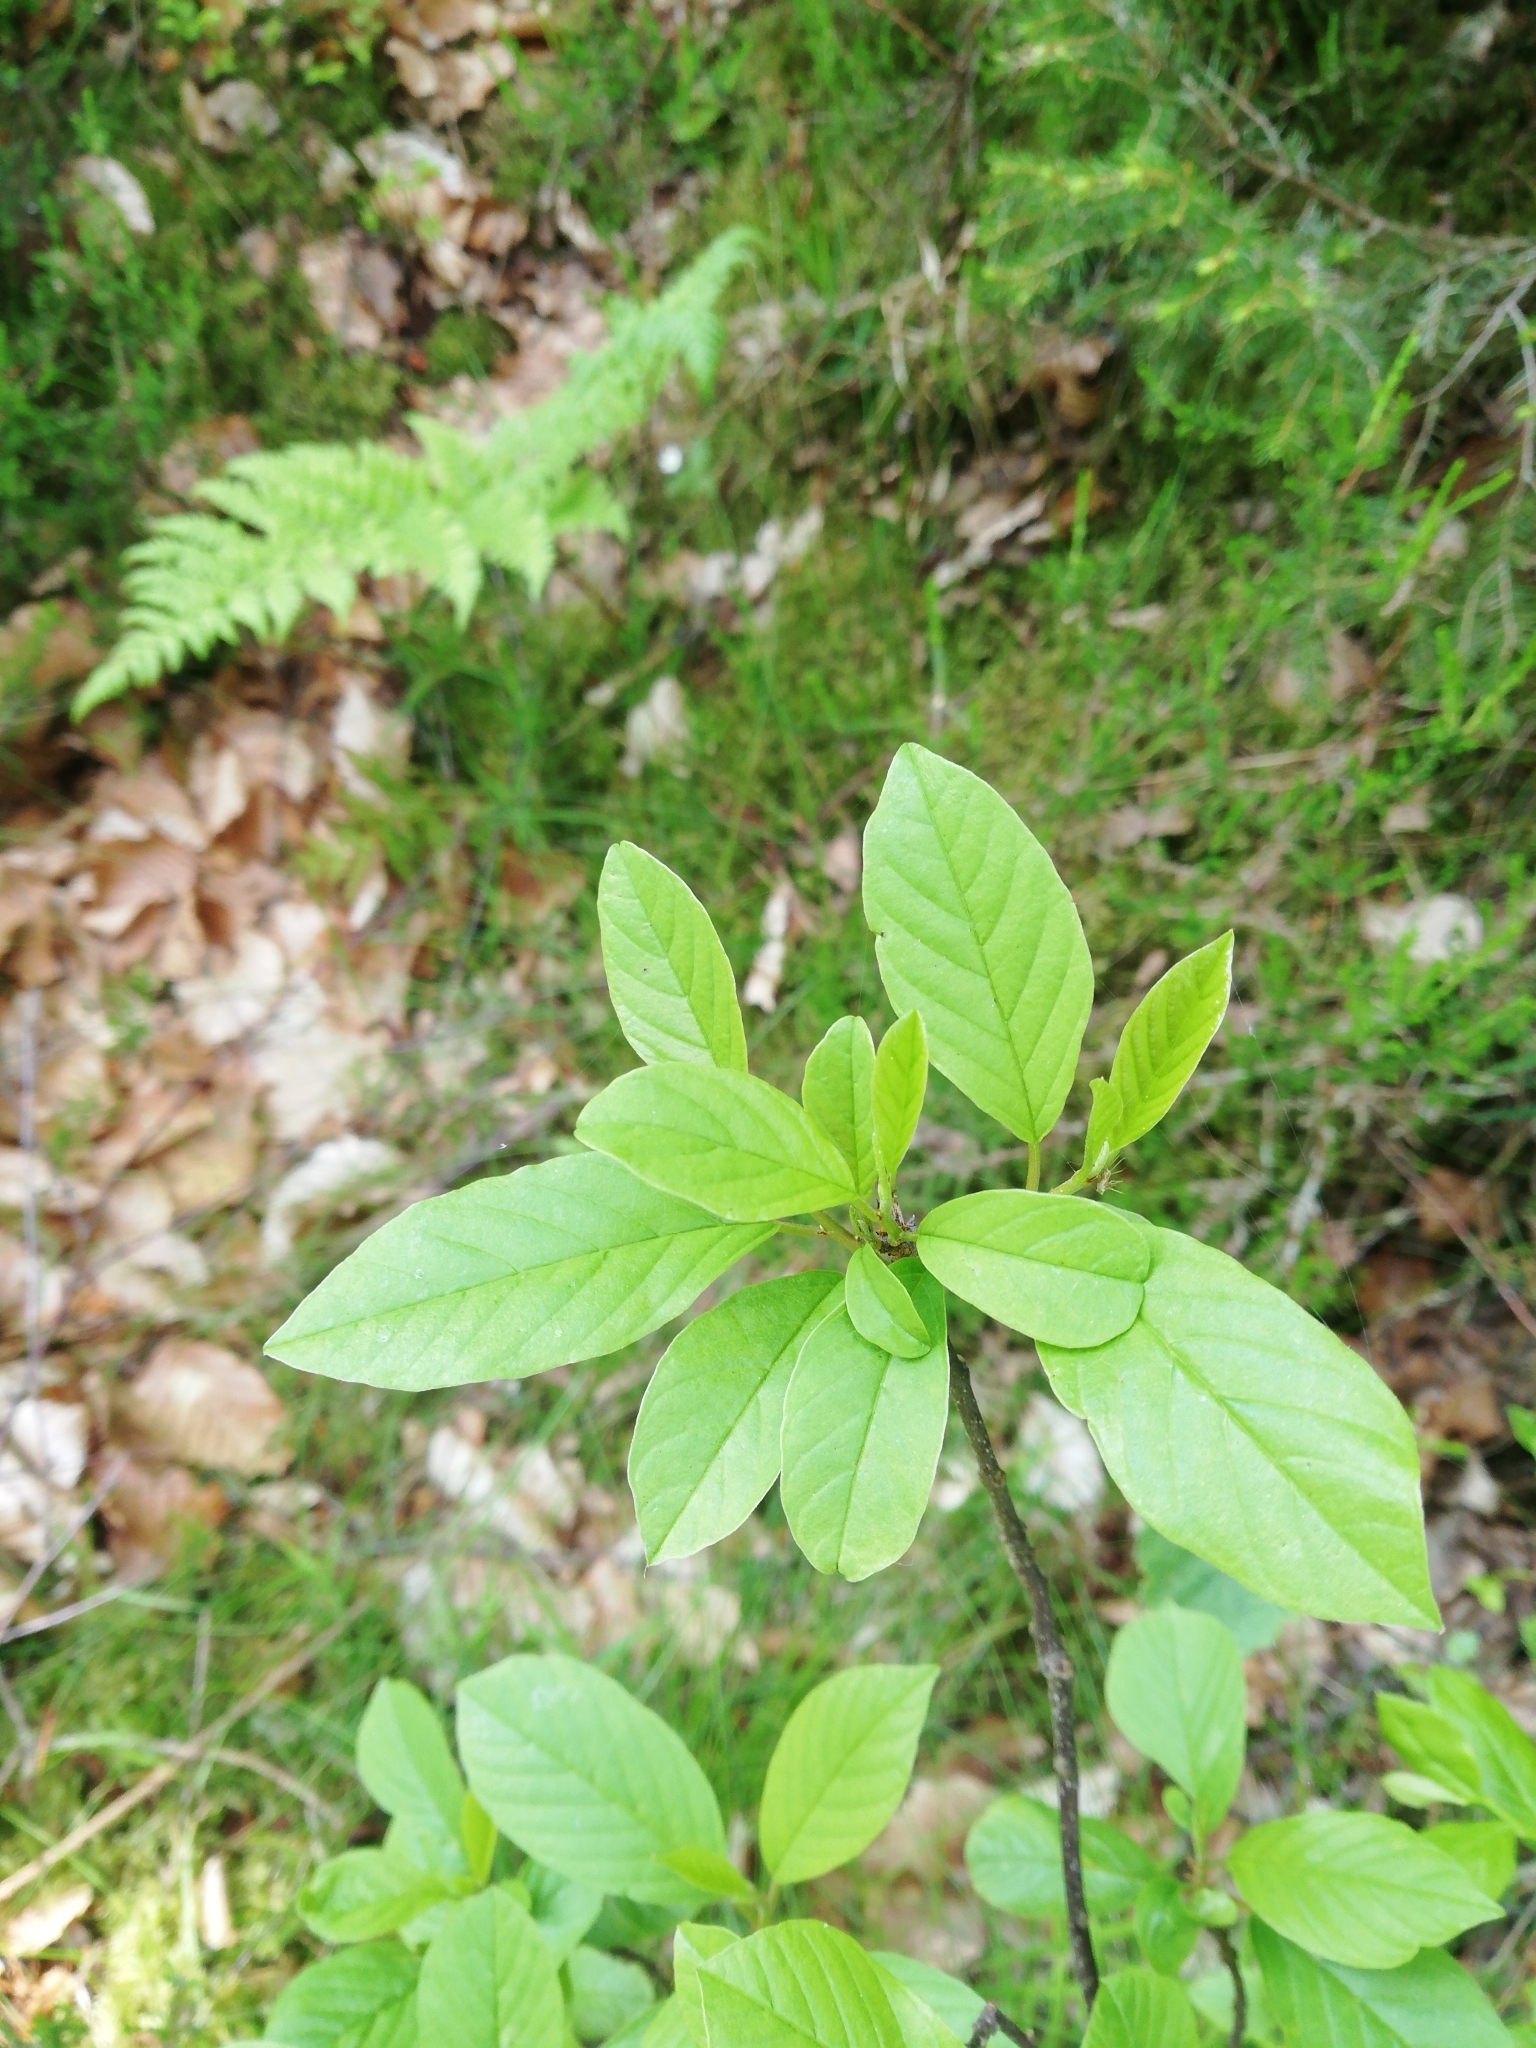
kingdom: Plantae
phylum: Tracheophyta
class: Magnoliopsida
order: Rosales
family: Rhamnaceae
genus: Frangula
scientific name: Frangula alnus
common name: Alder buckthorn
